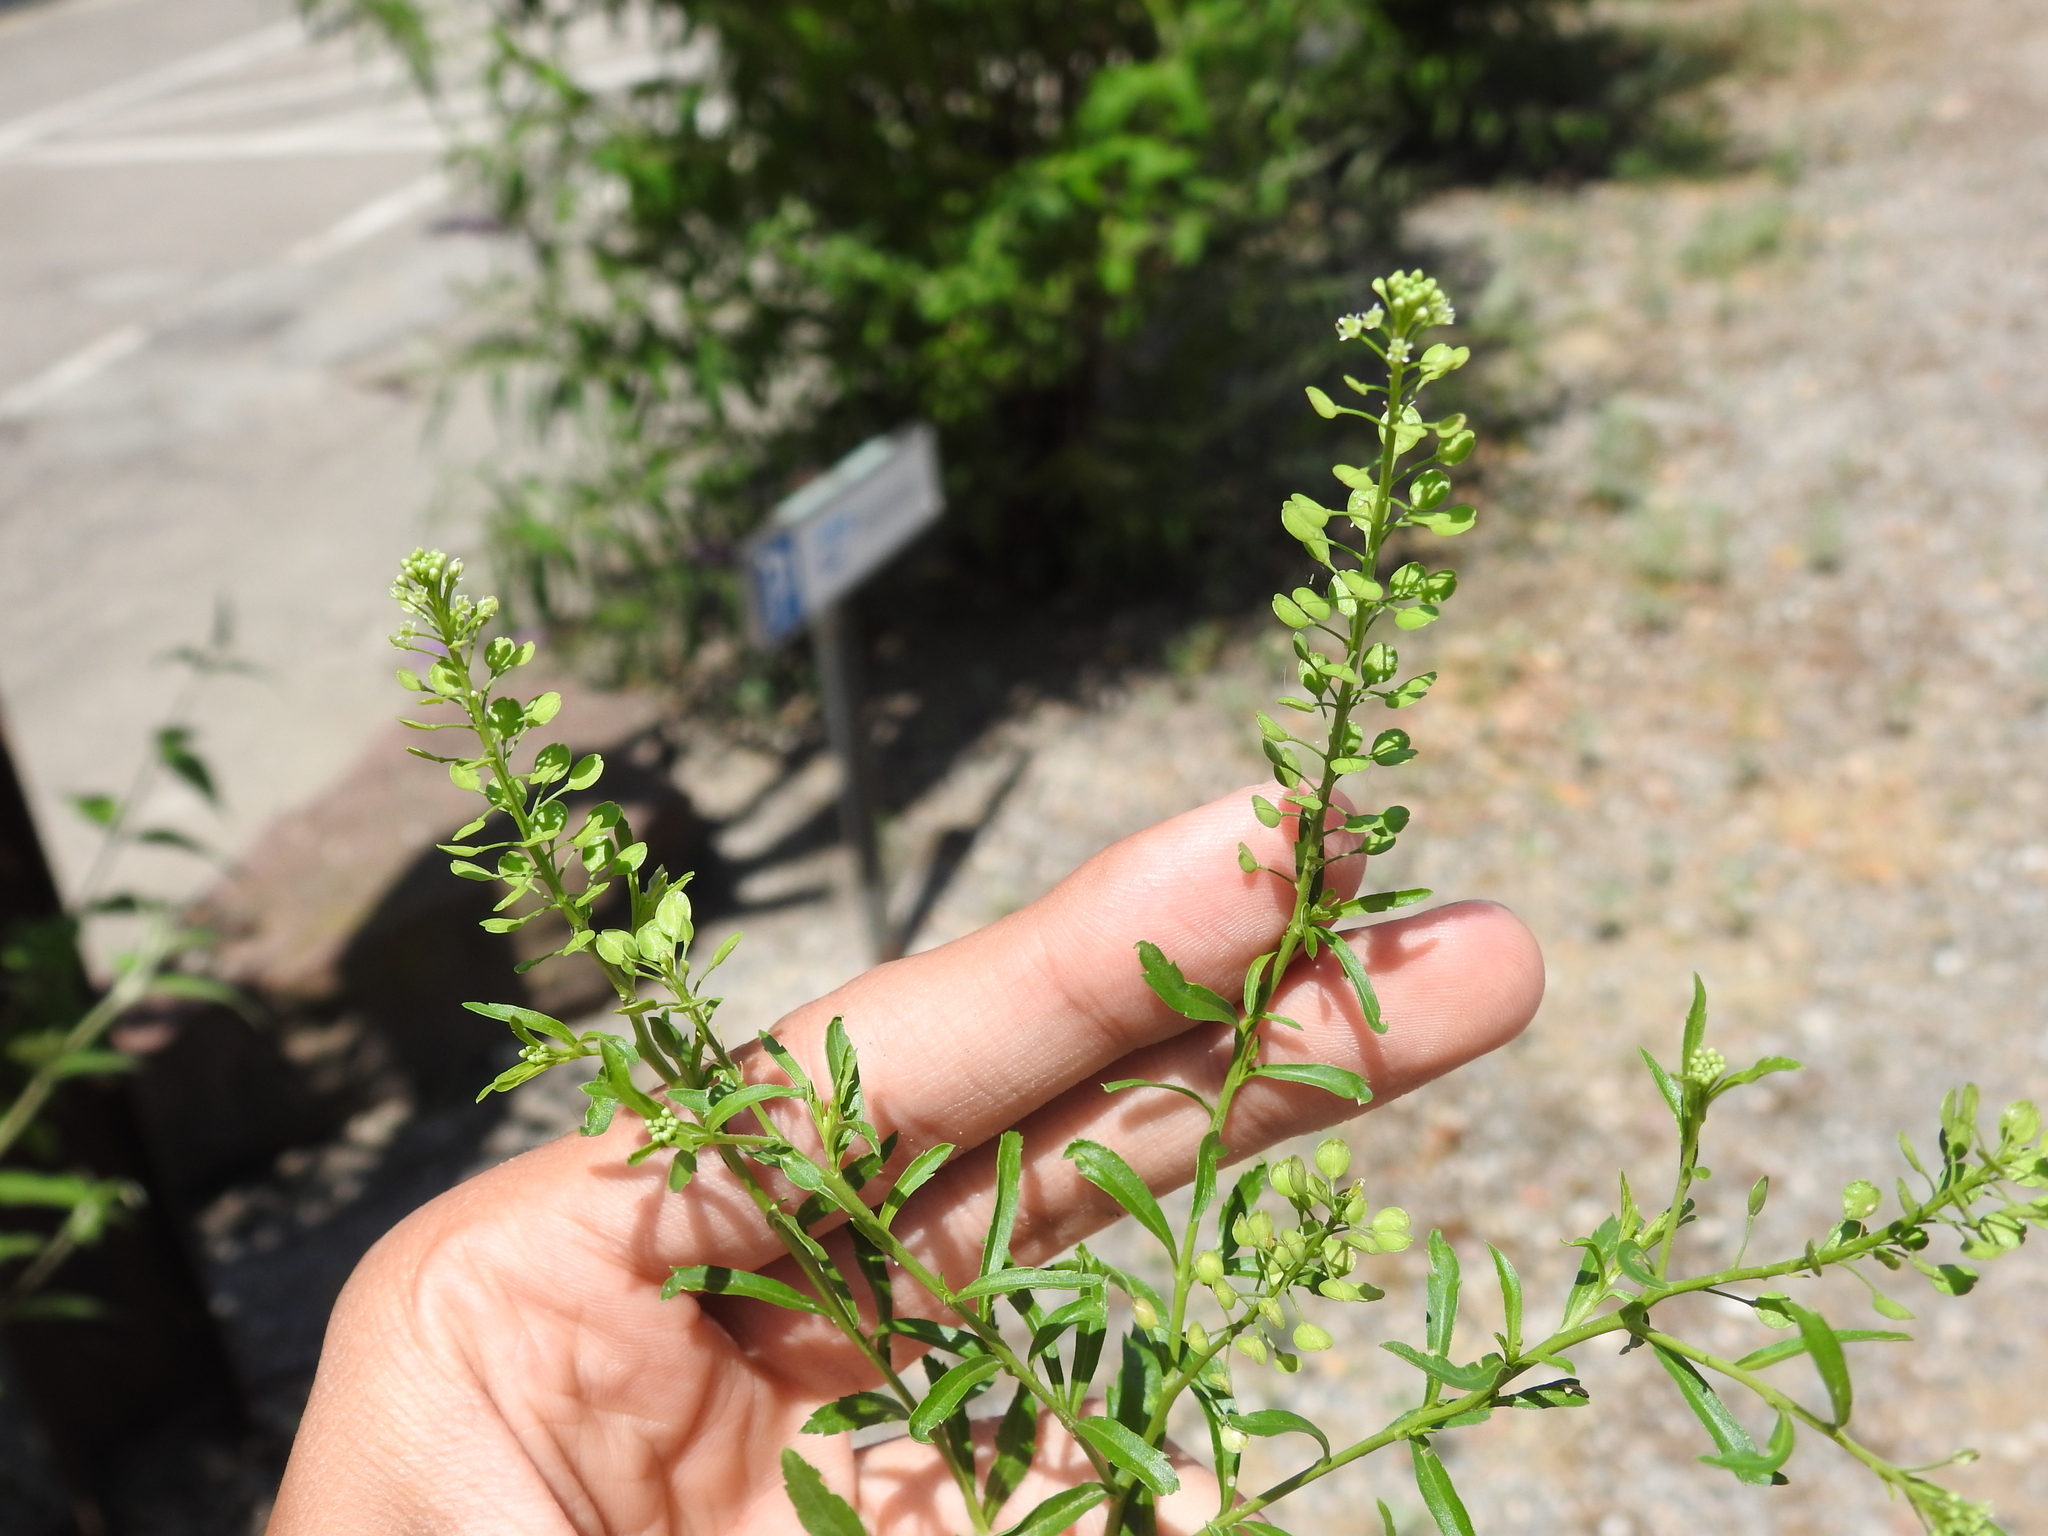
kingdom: Plantae
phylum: Tracheophyta
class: Magnoliopsida
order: Brassicales
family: Brassicaceae
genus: Lepidium
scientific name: Lepidium virginicum
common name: Least pepperwort
